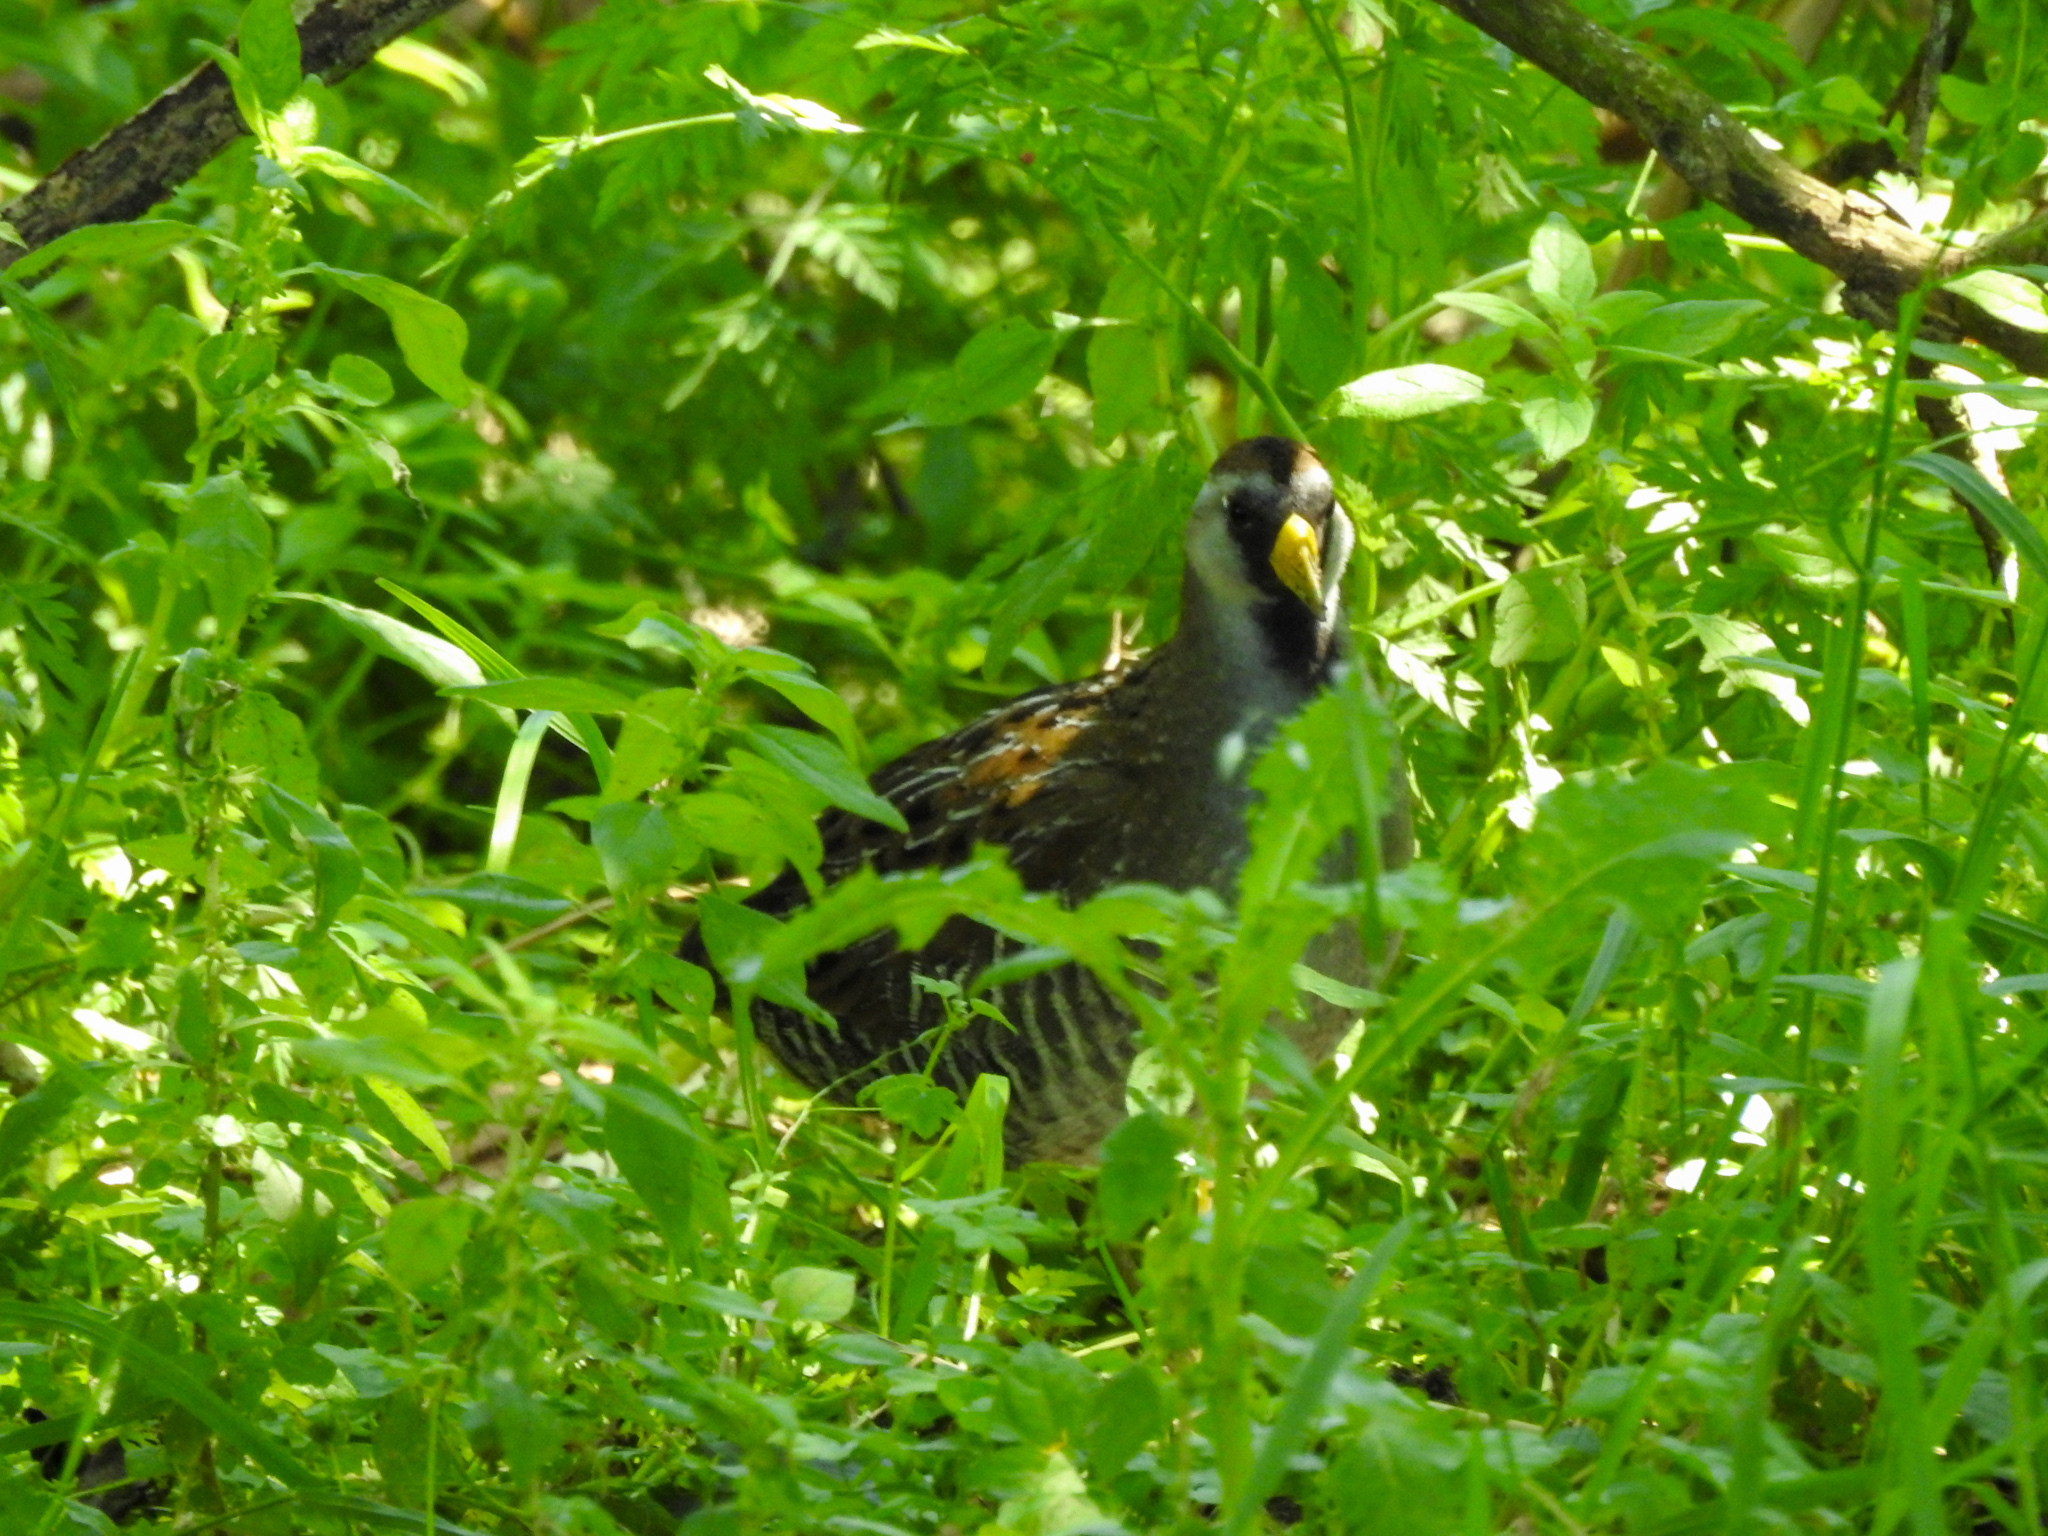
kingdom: Animalia
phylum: Chordata
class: Aves
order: Gruiformes
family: Rallidae
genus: Porzana
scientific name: Porzana carolina
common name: Sora
